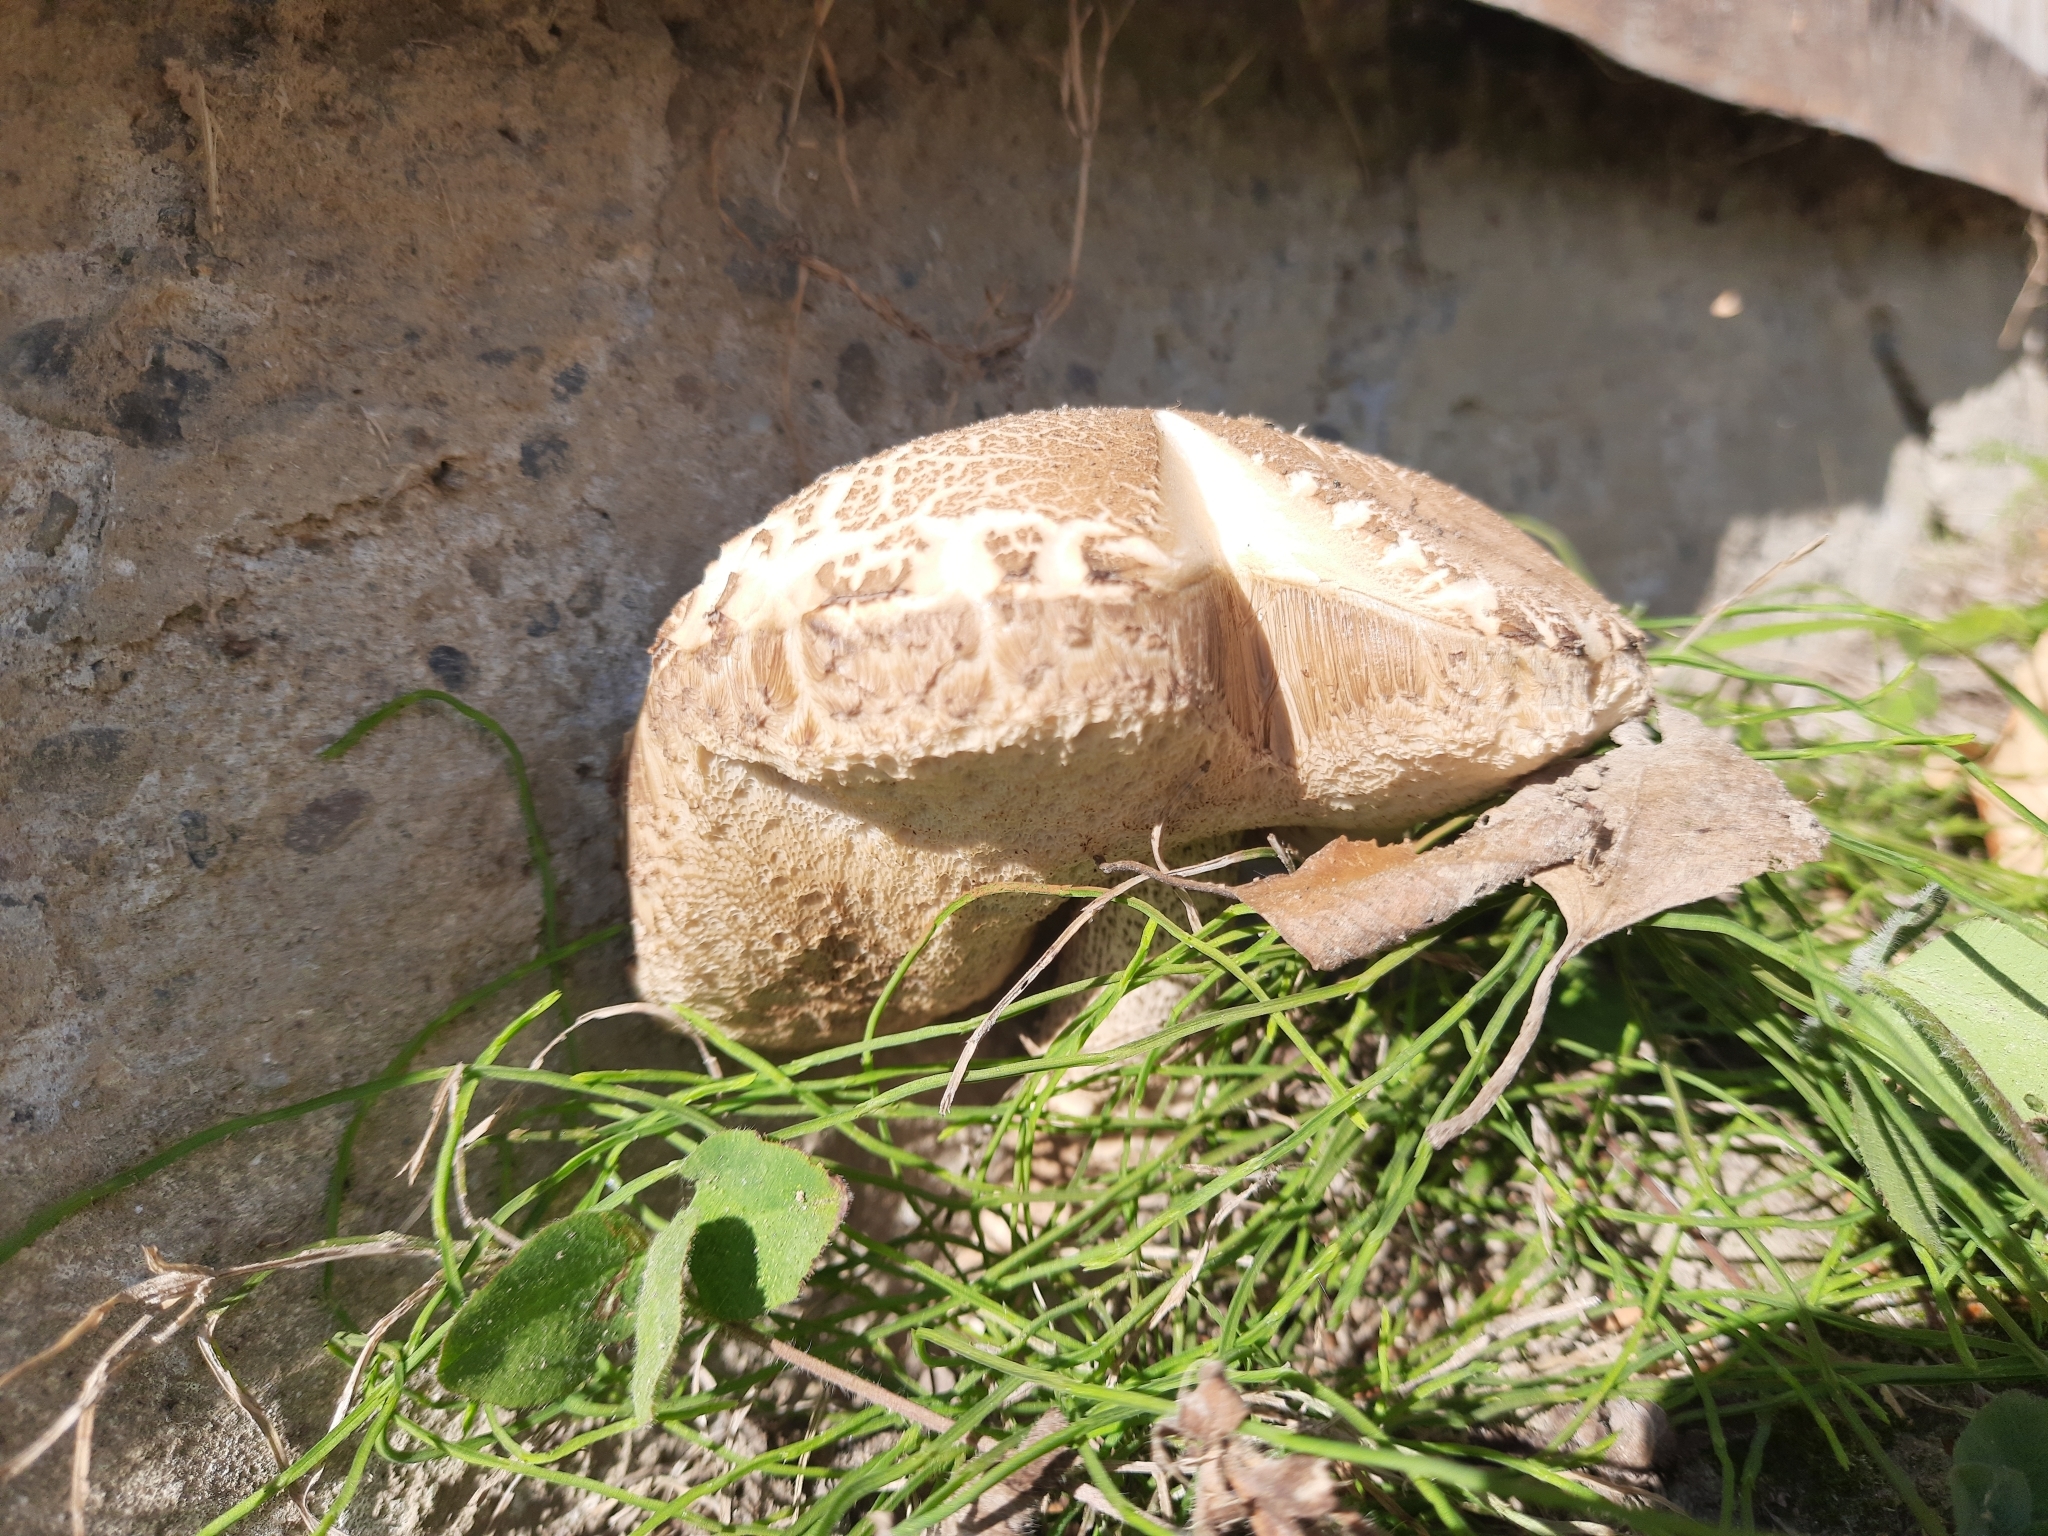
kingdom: Fungi
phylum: Basidiomycota
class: Agaricomycetes
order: Boletales
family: Boletaceae
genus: Leccinum
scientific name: Leccinum scabrum
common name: Blushing bolete
